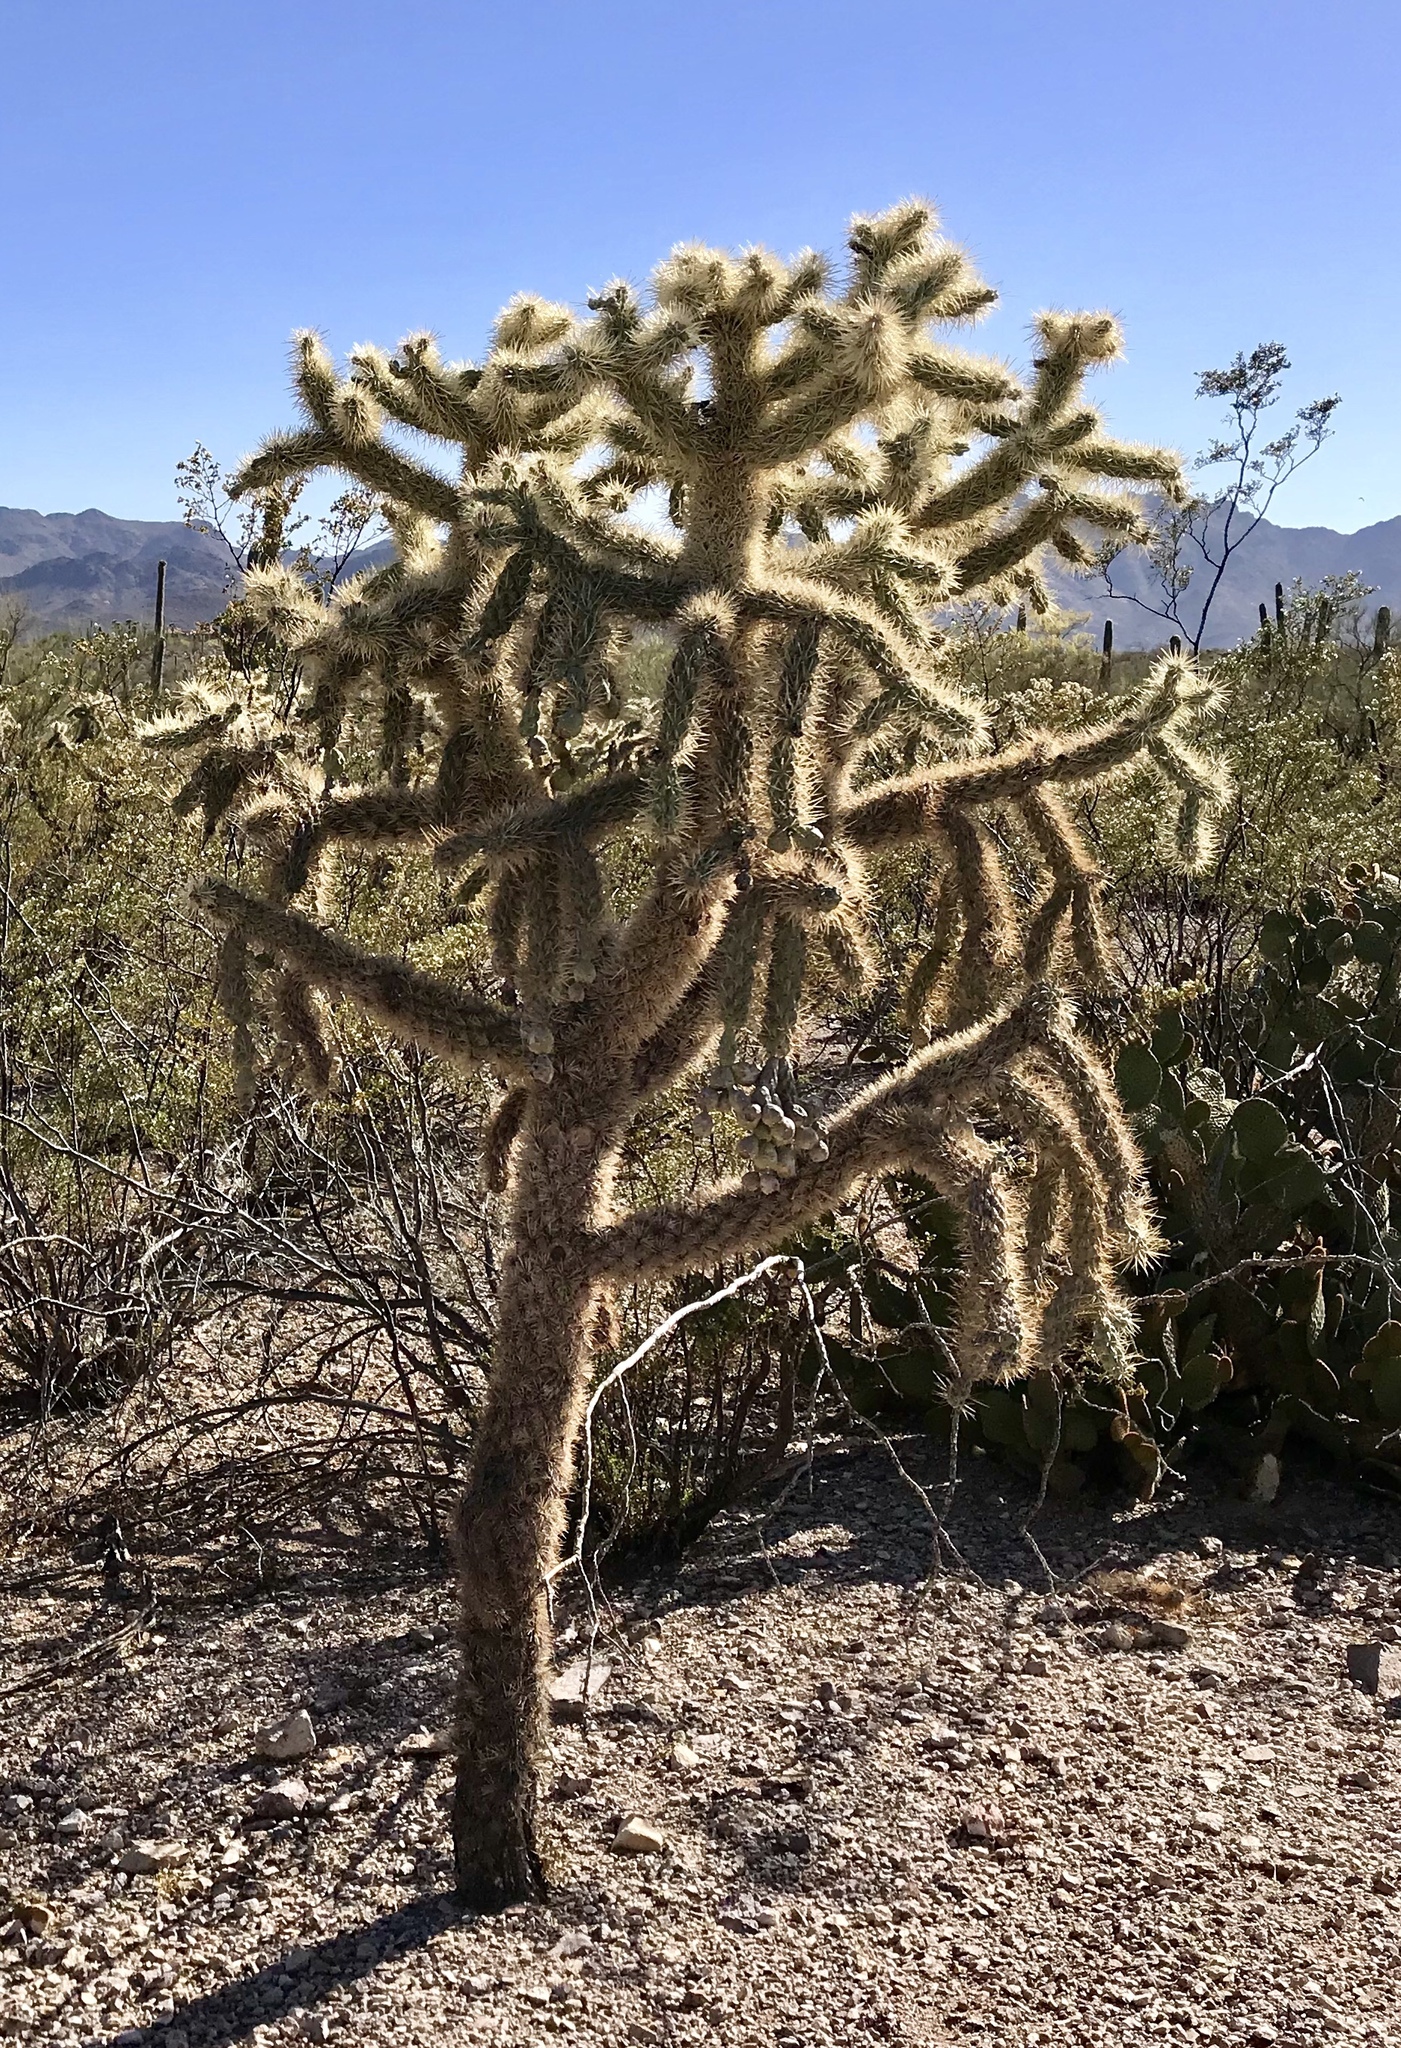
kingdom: Plantae
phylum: Tracheophyta
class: Magnoliopsida
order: Caryophyllales
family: Cactaceae
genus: Cylindropuntia
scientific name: Cylindropuntia fulgida
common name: Jumping cholla
